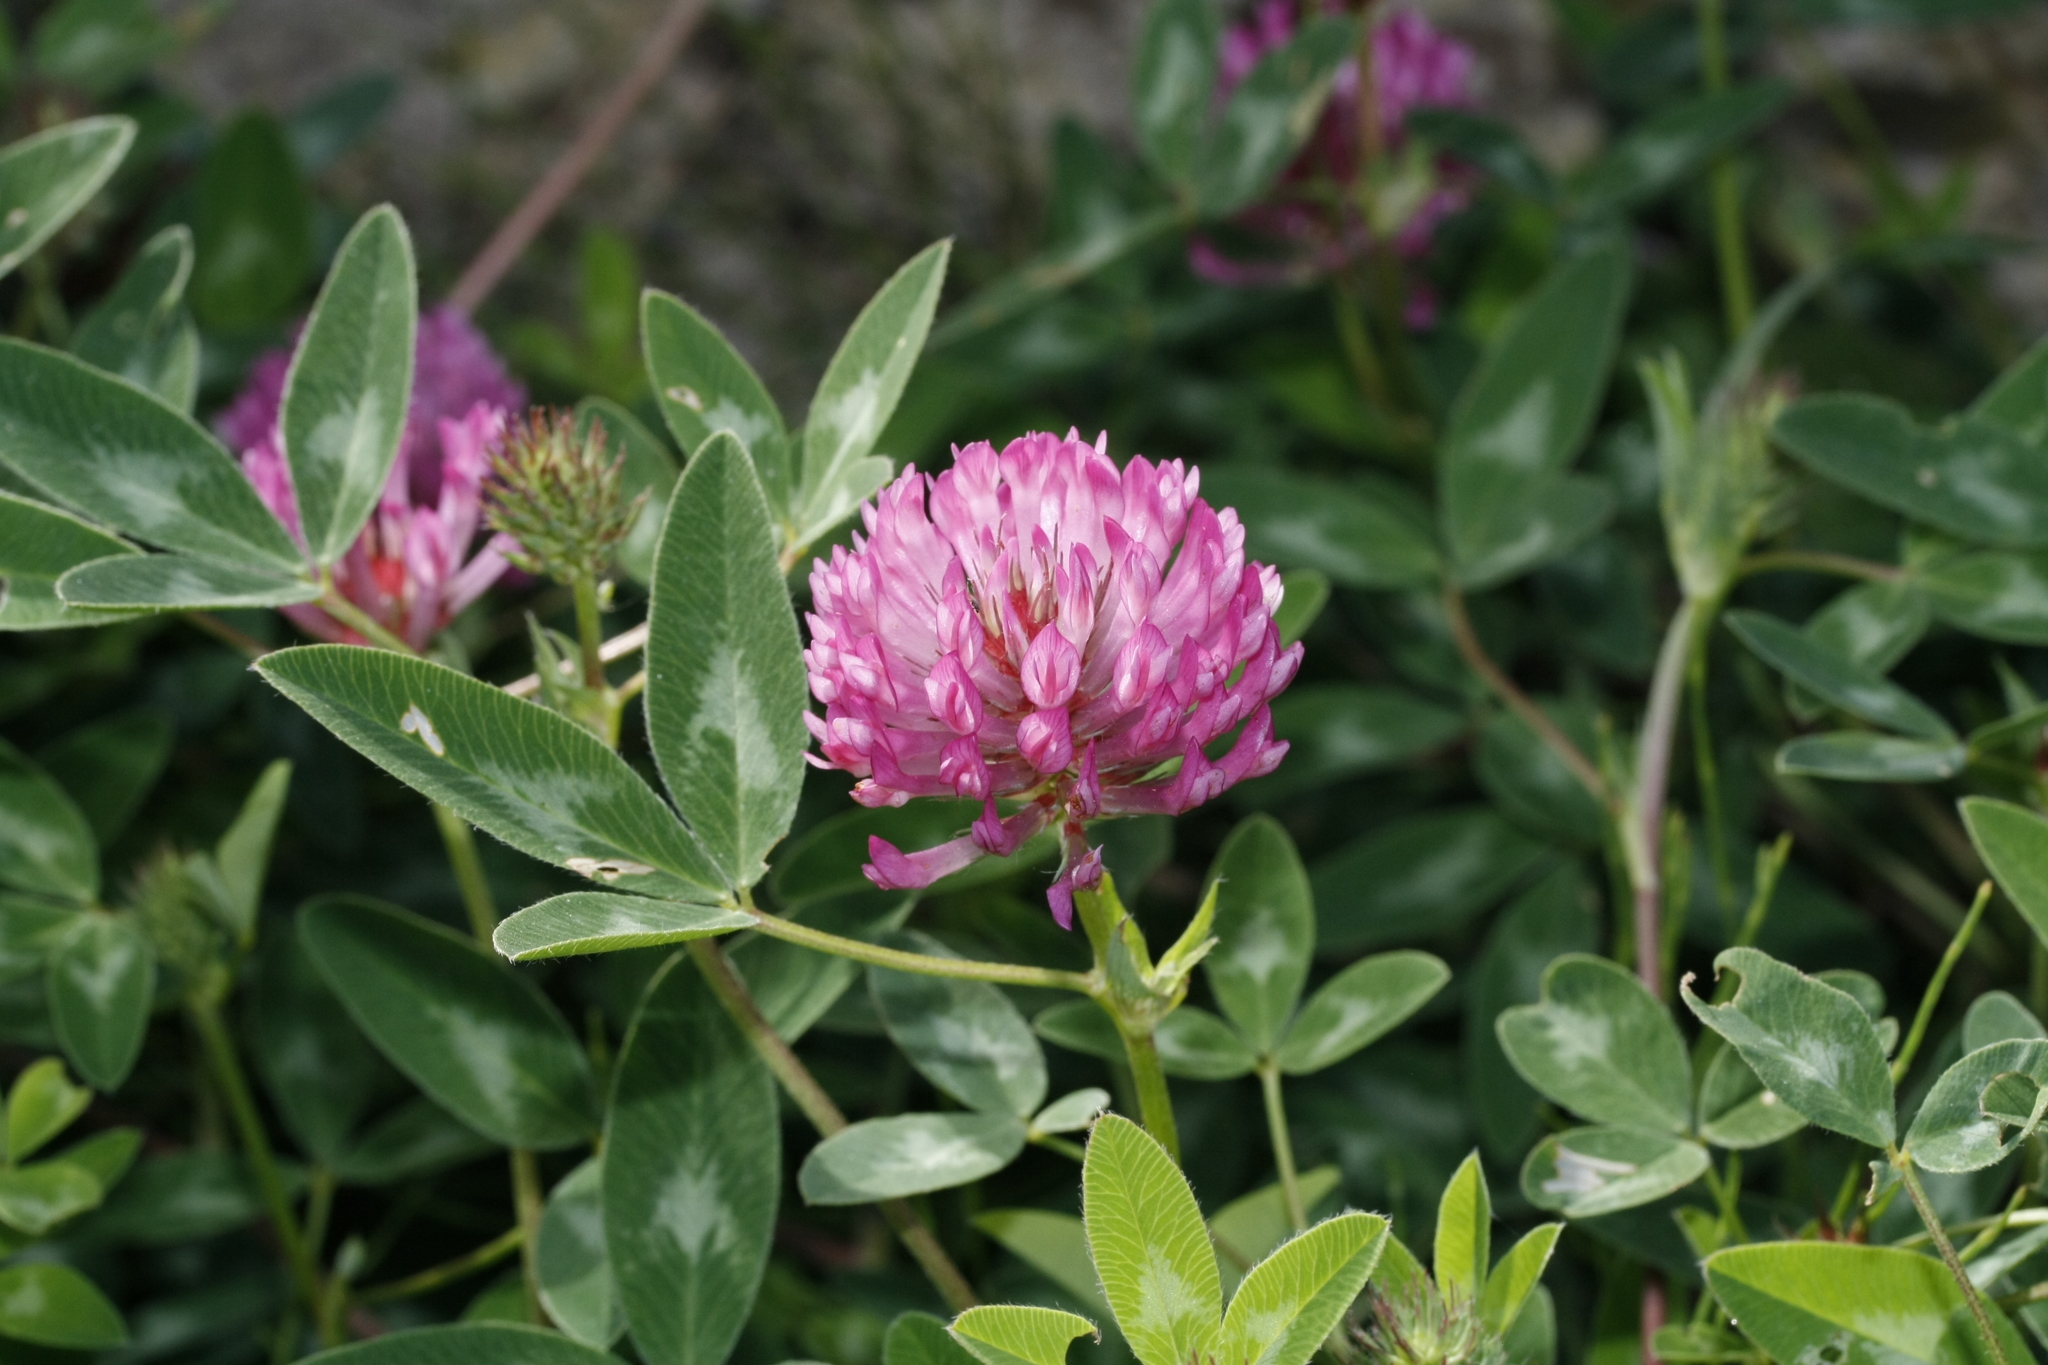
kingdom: Plantae
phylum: Tracheophyta
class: Magnoliopsida
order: Fabales
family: Fabaceae
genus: Trifolium
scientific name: Trifolium medium
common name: Zigzag clover
